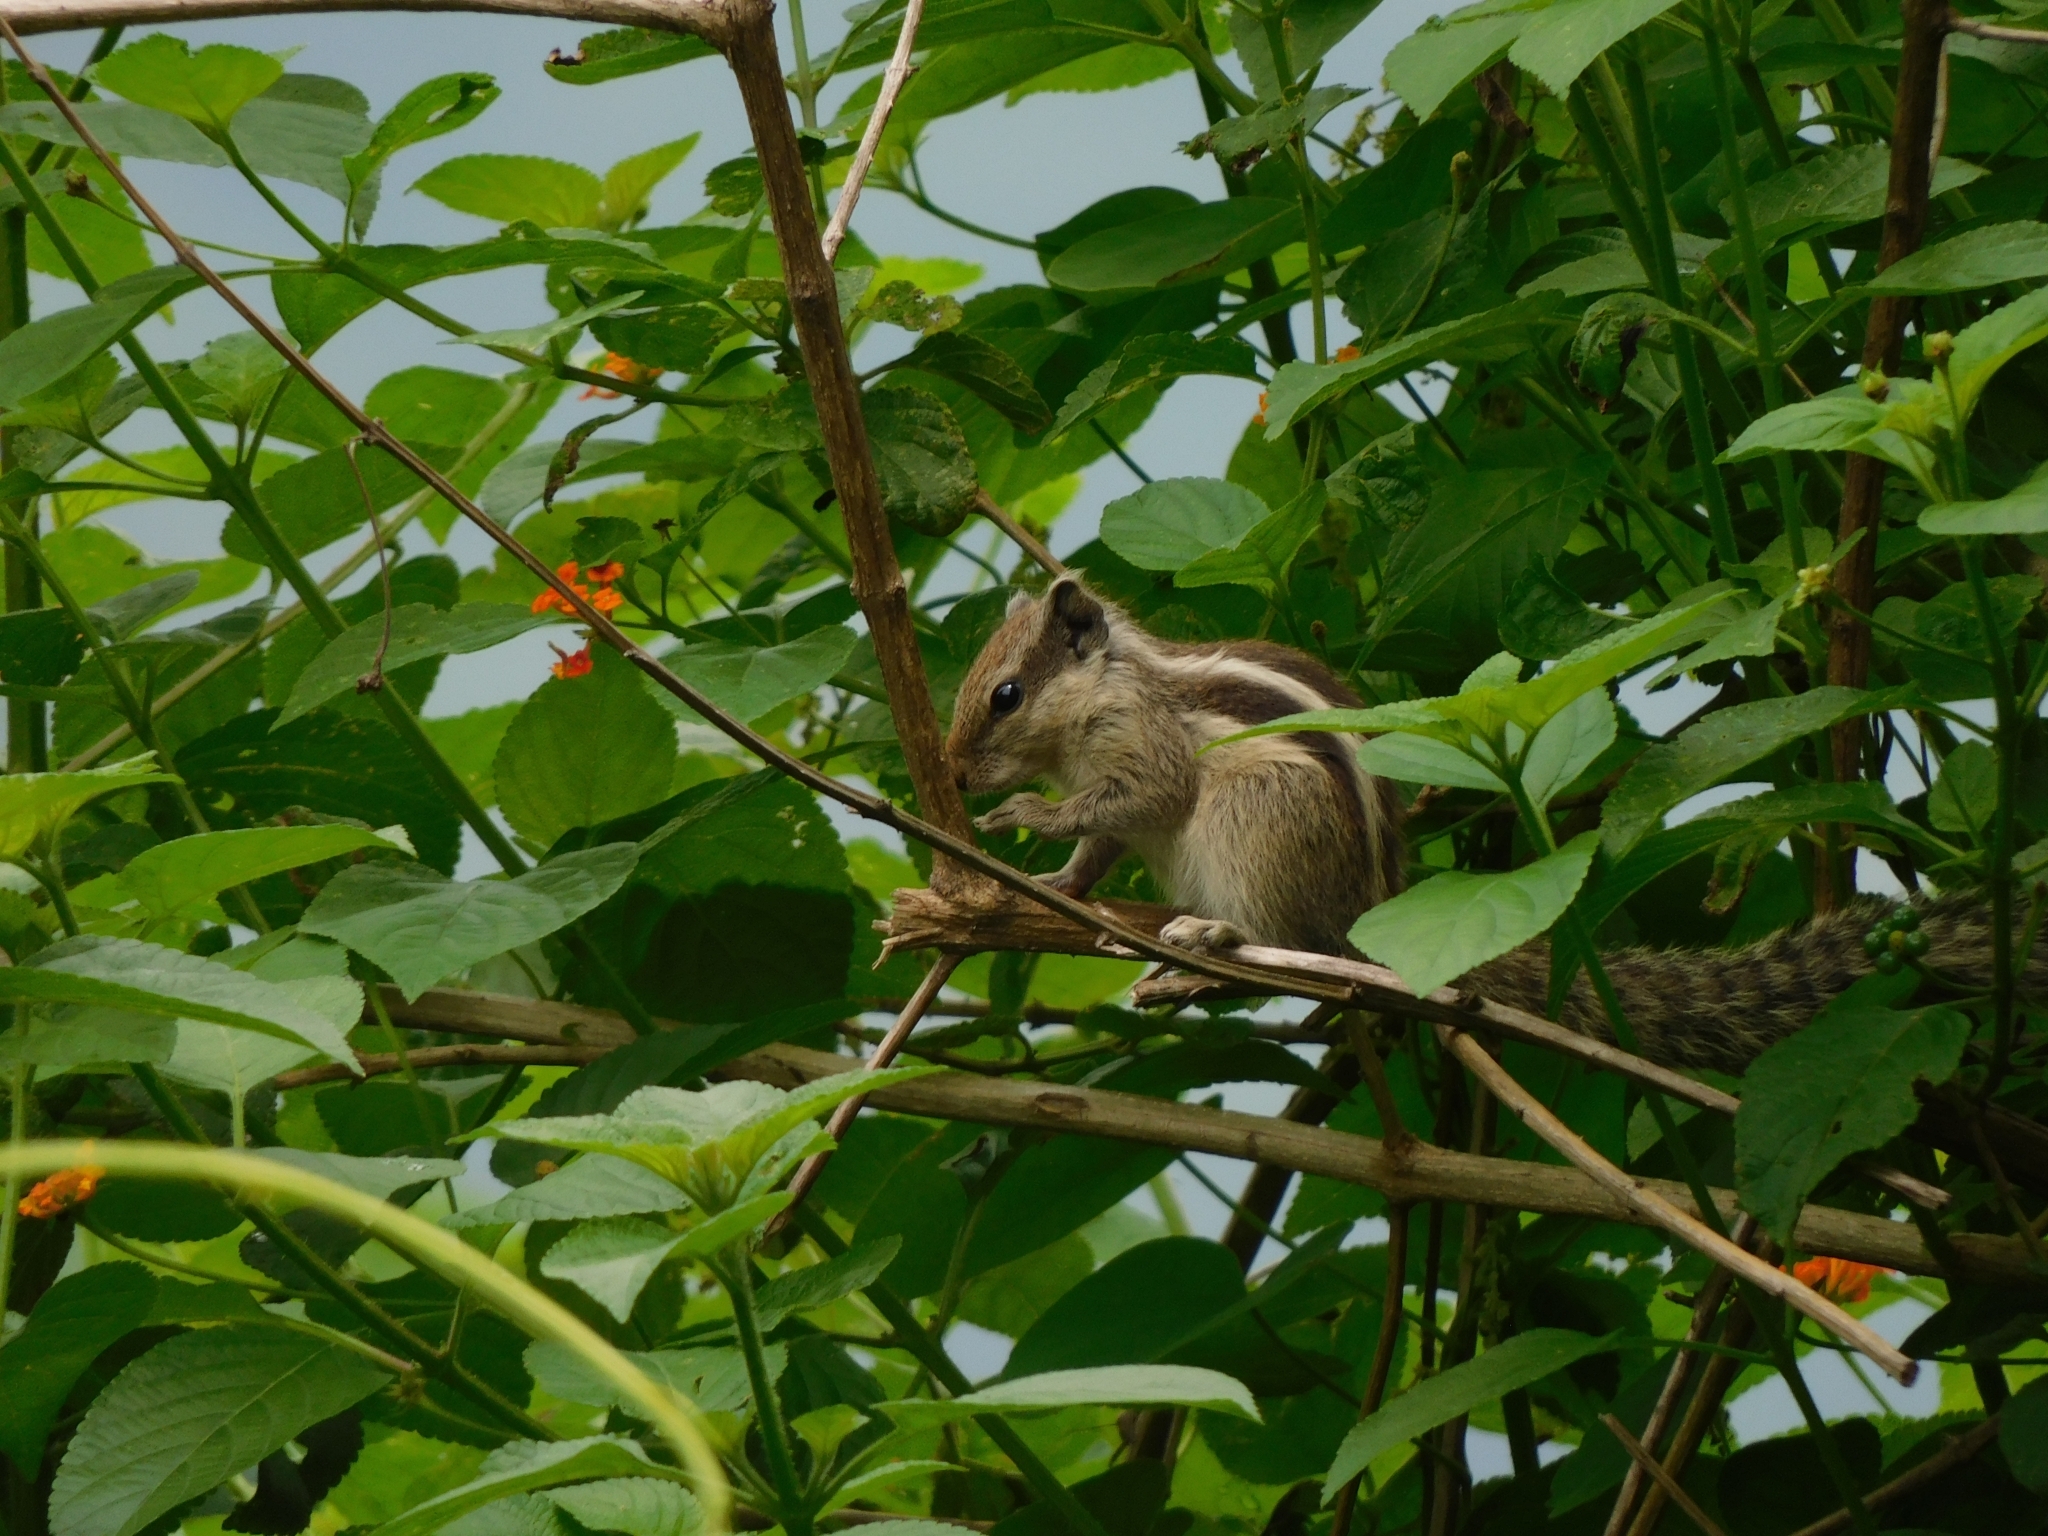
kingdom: Animalia
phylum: Chordata
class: Mammalia
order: Rodentia
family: Sciuridae
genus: Funambulus
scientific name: Funambulus pennantii
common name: Northern palm squirrel
